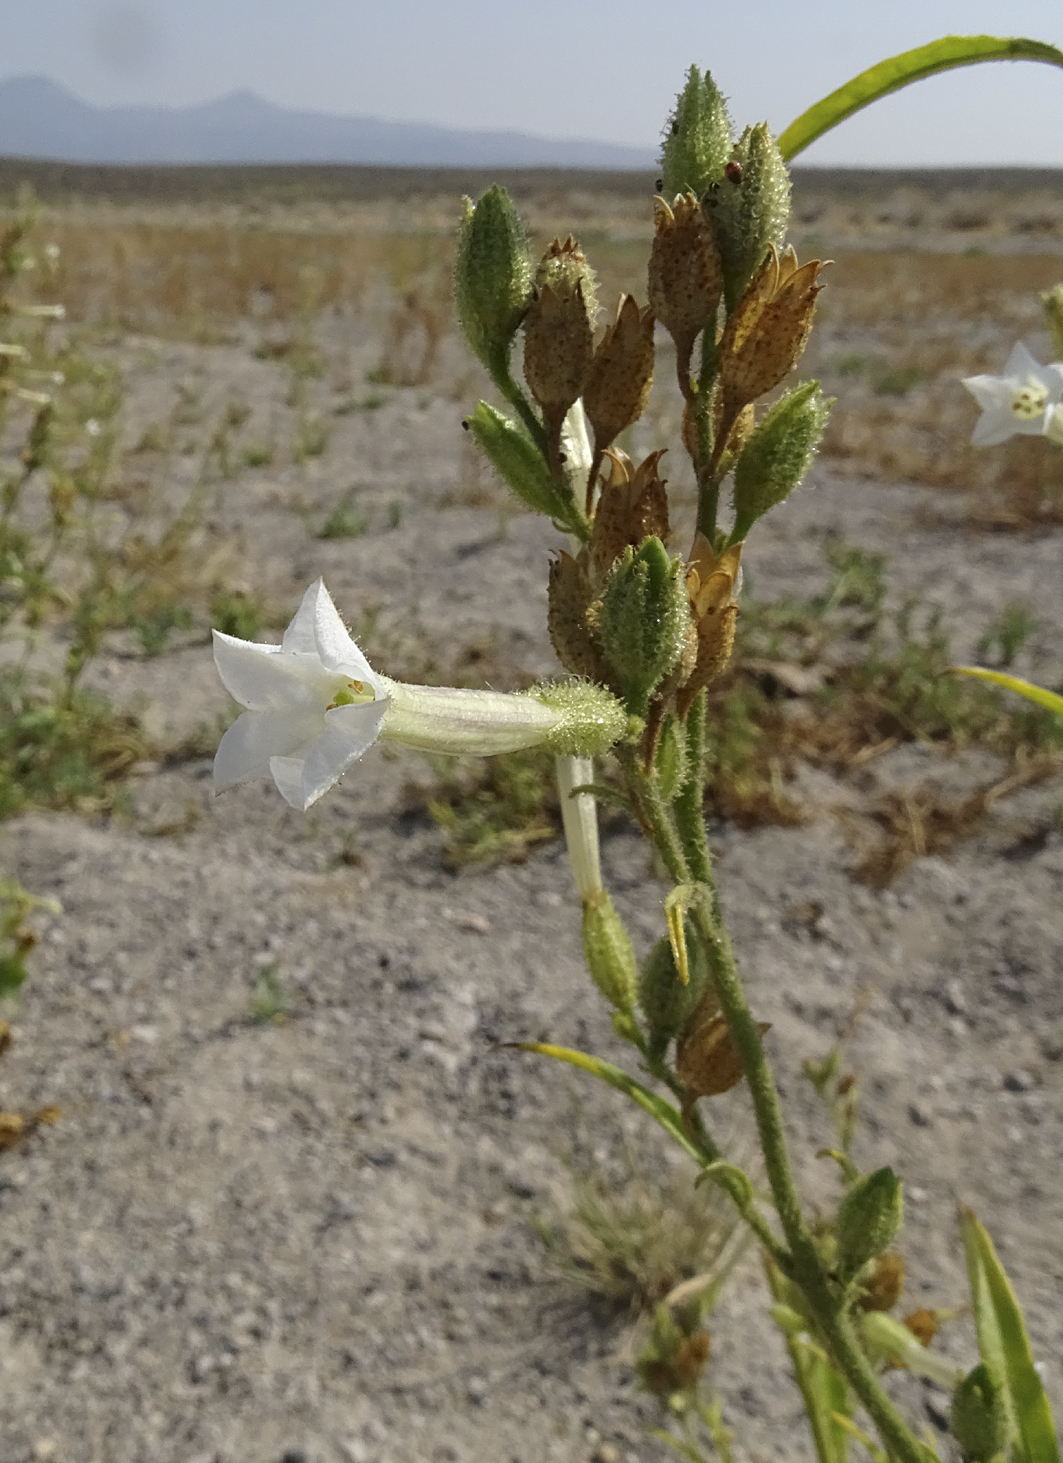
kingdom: Plantae
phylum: Tracheophyta
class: Magnoliopsida
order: Solanales
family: Solanaceae
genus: Nicotiana
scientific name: Nicotiana attenuata
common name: Coyote tobacco
